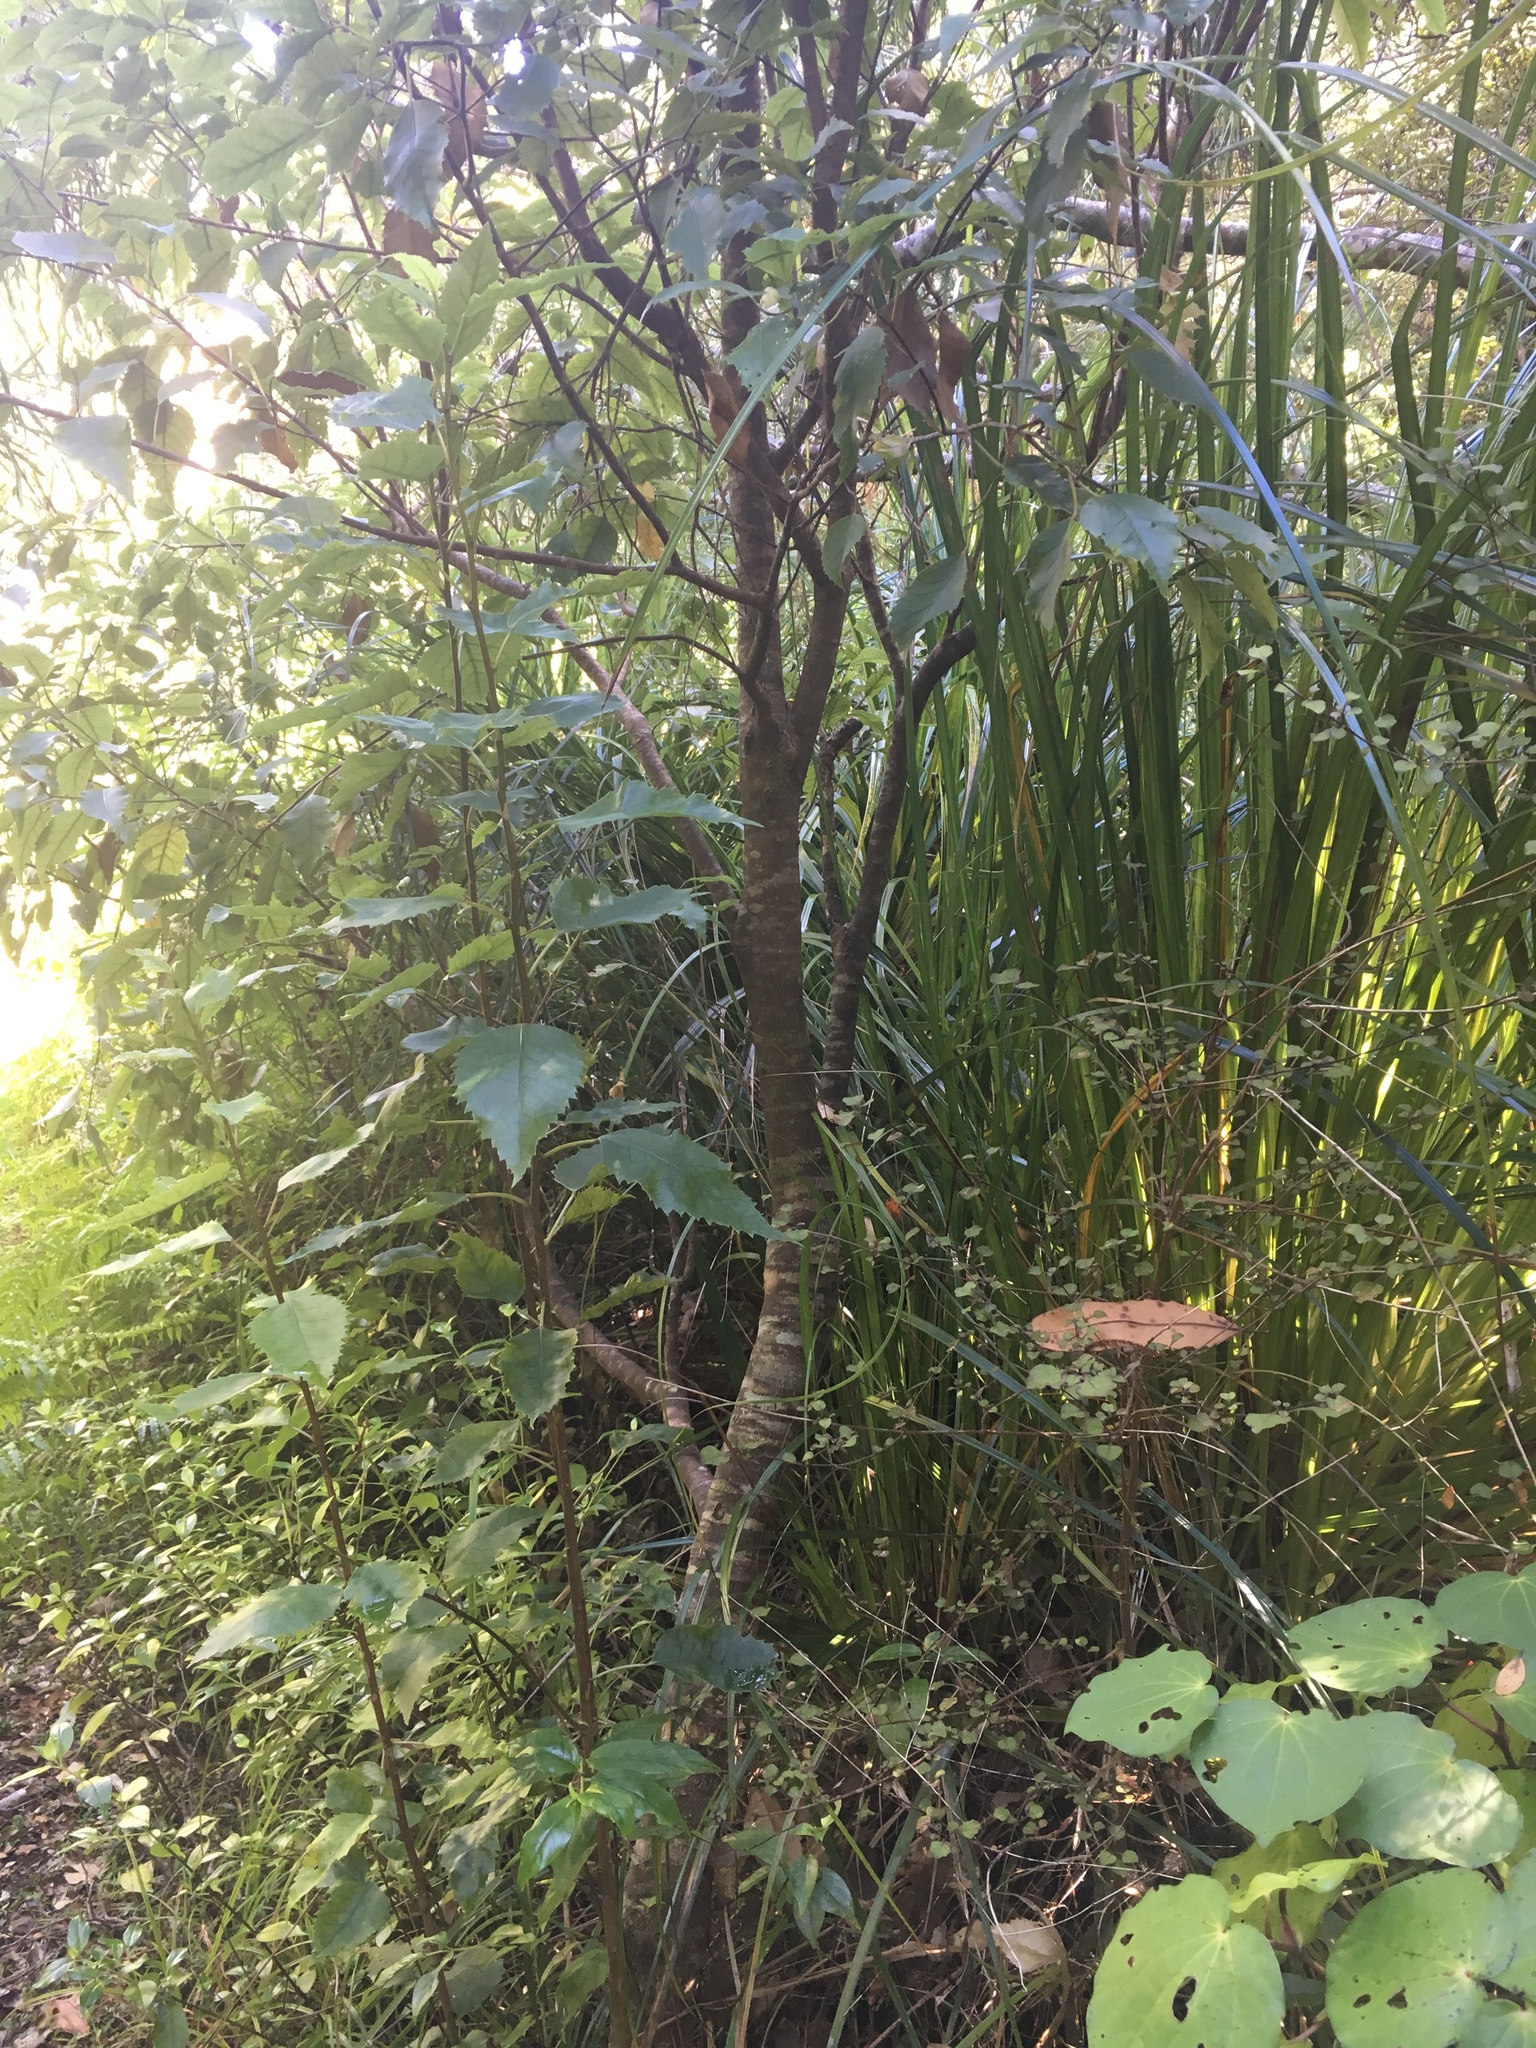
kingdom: Plantae
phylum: Tracheophyta
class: Magnoliopsida
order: Malvales
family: Malvaceae
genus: Hoheria
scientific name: Hoheria populnea
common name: Lacebark
